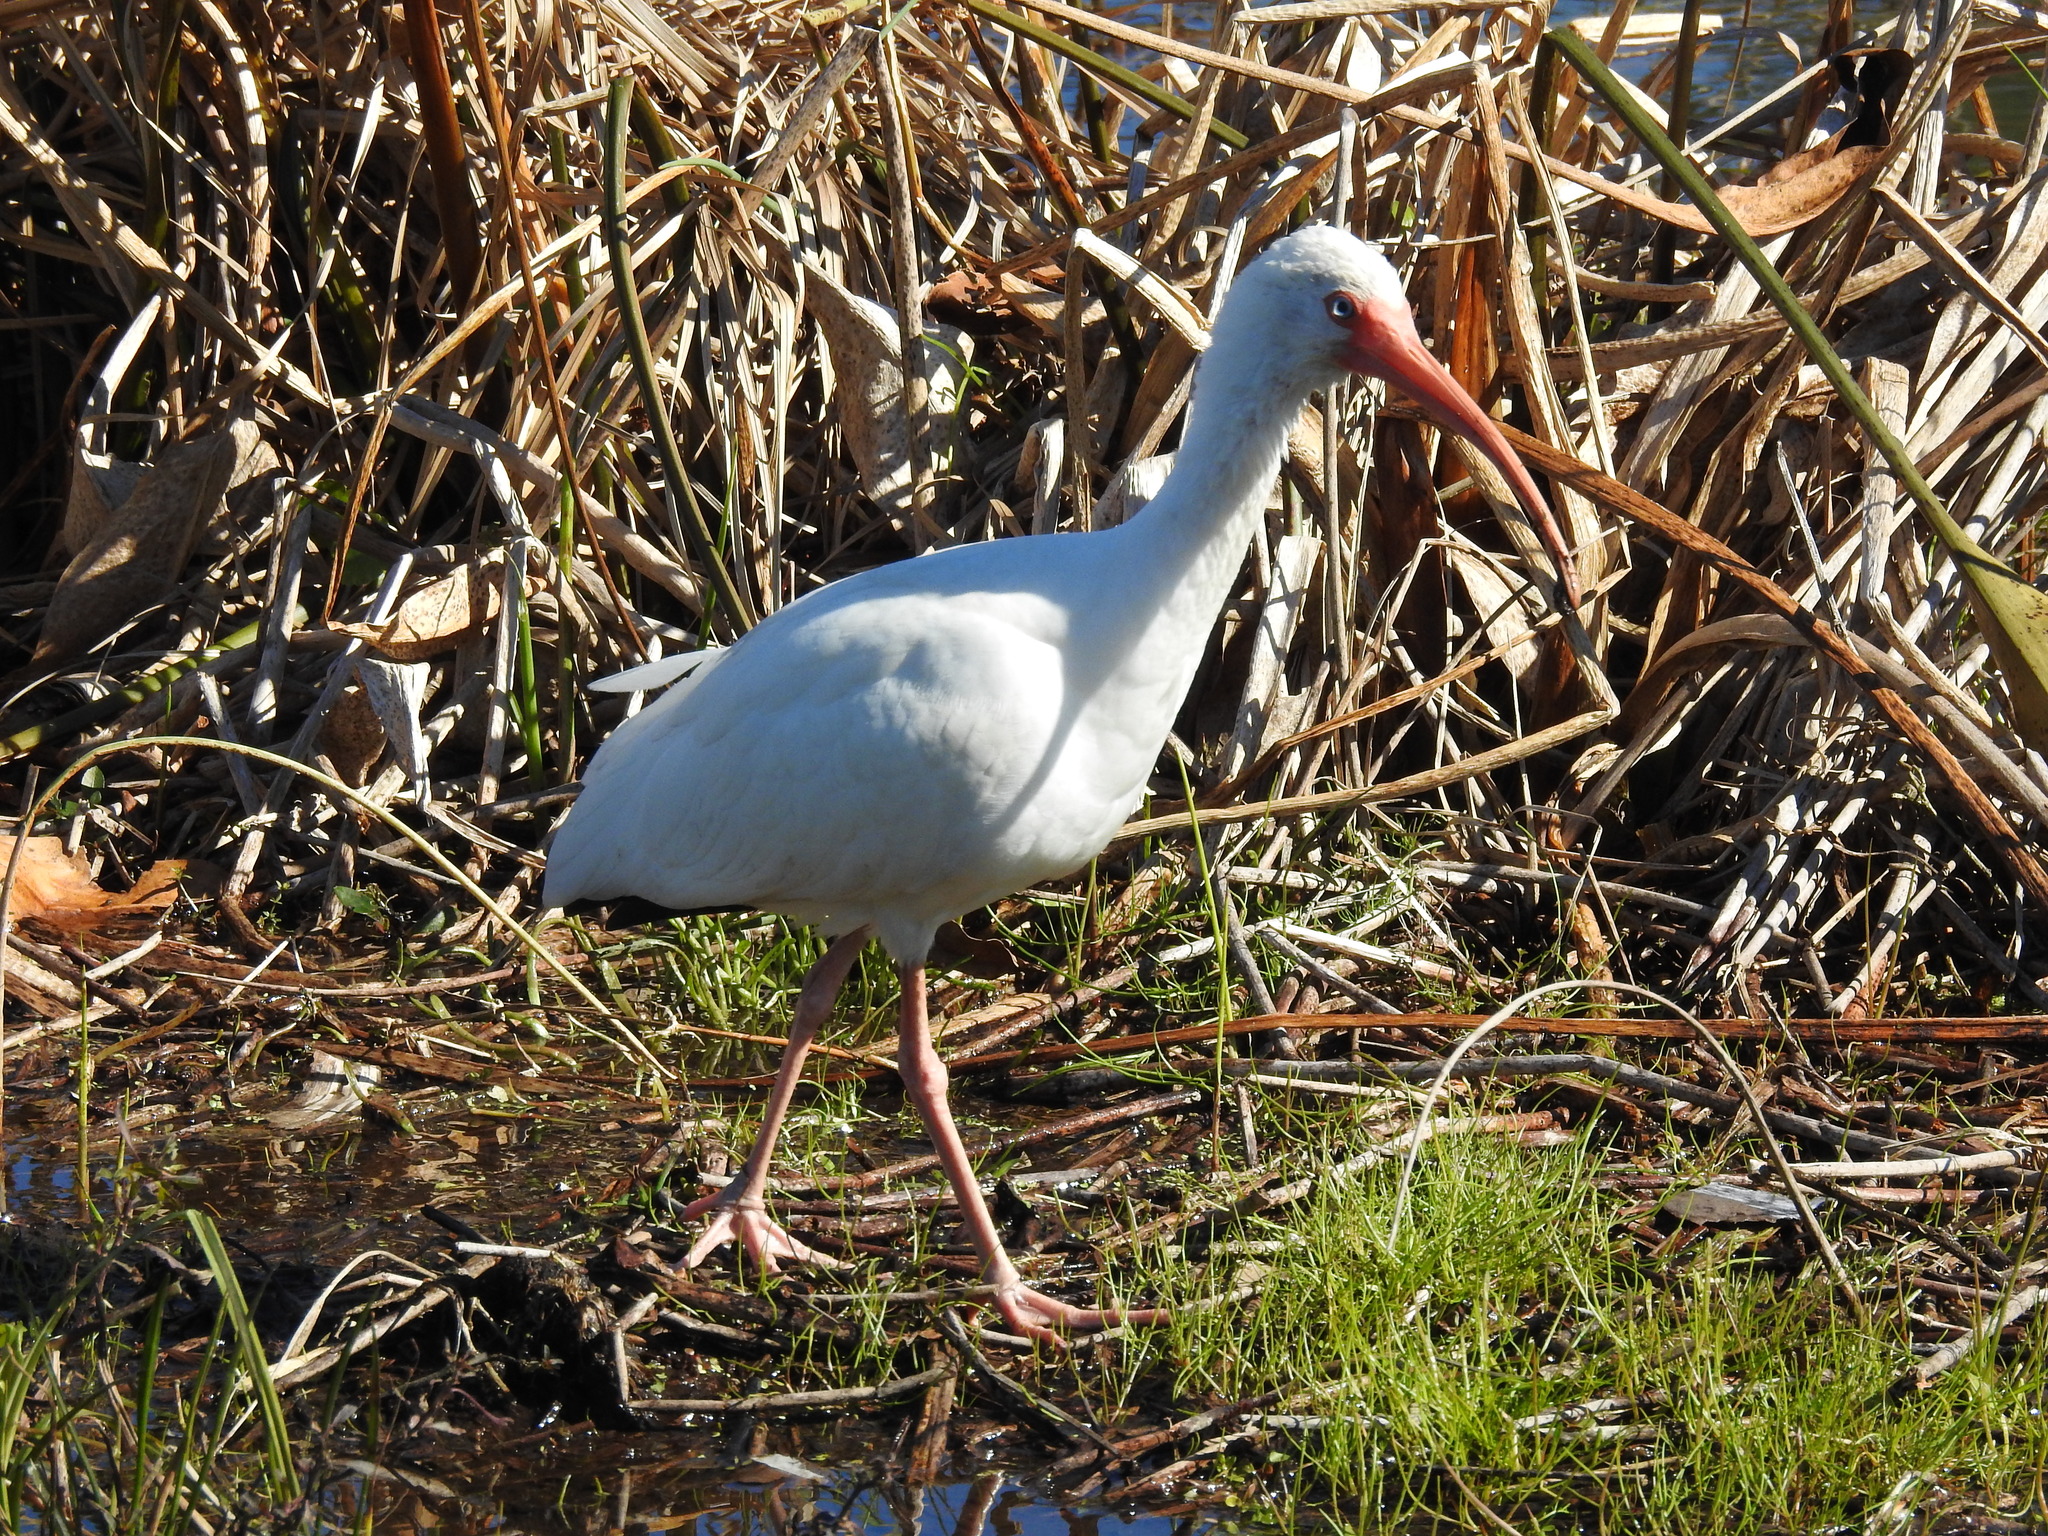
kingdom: Animalia
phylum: Chordata
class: Aves
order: Pelecaniformes
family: Threskiornithidae
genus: Eudocimus
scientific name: Eudocimus albus
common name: White ibis
